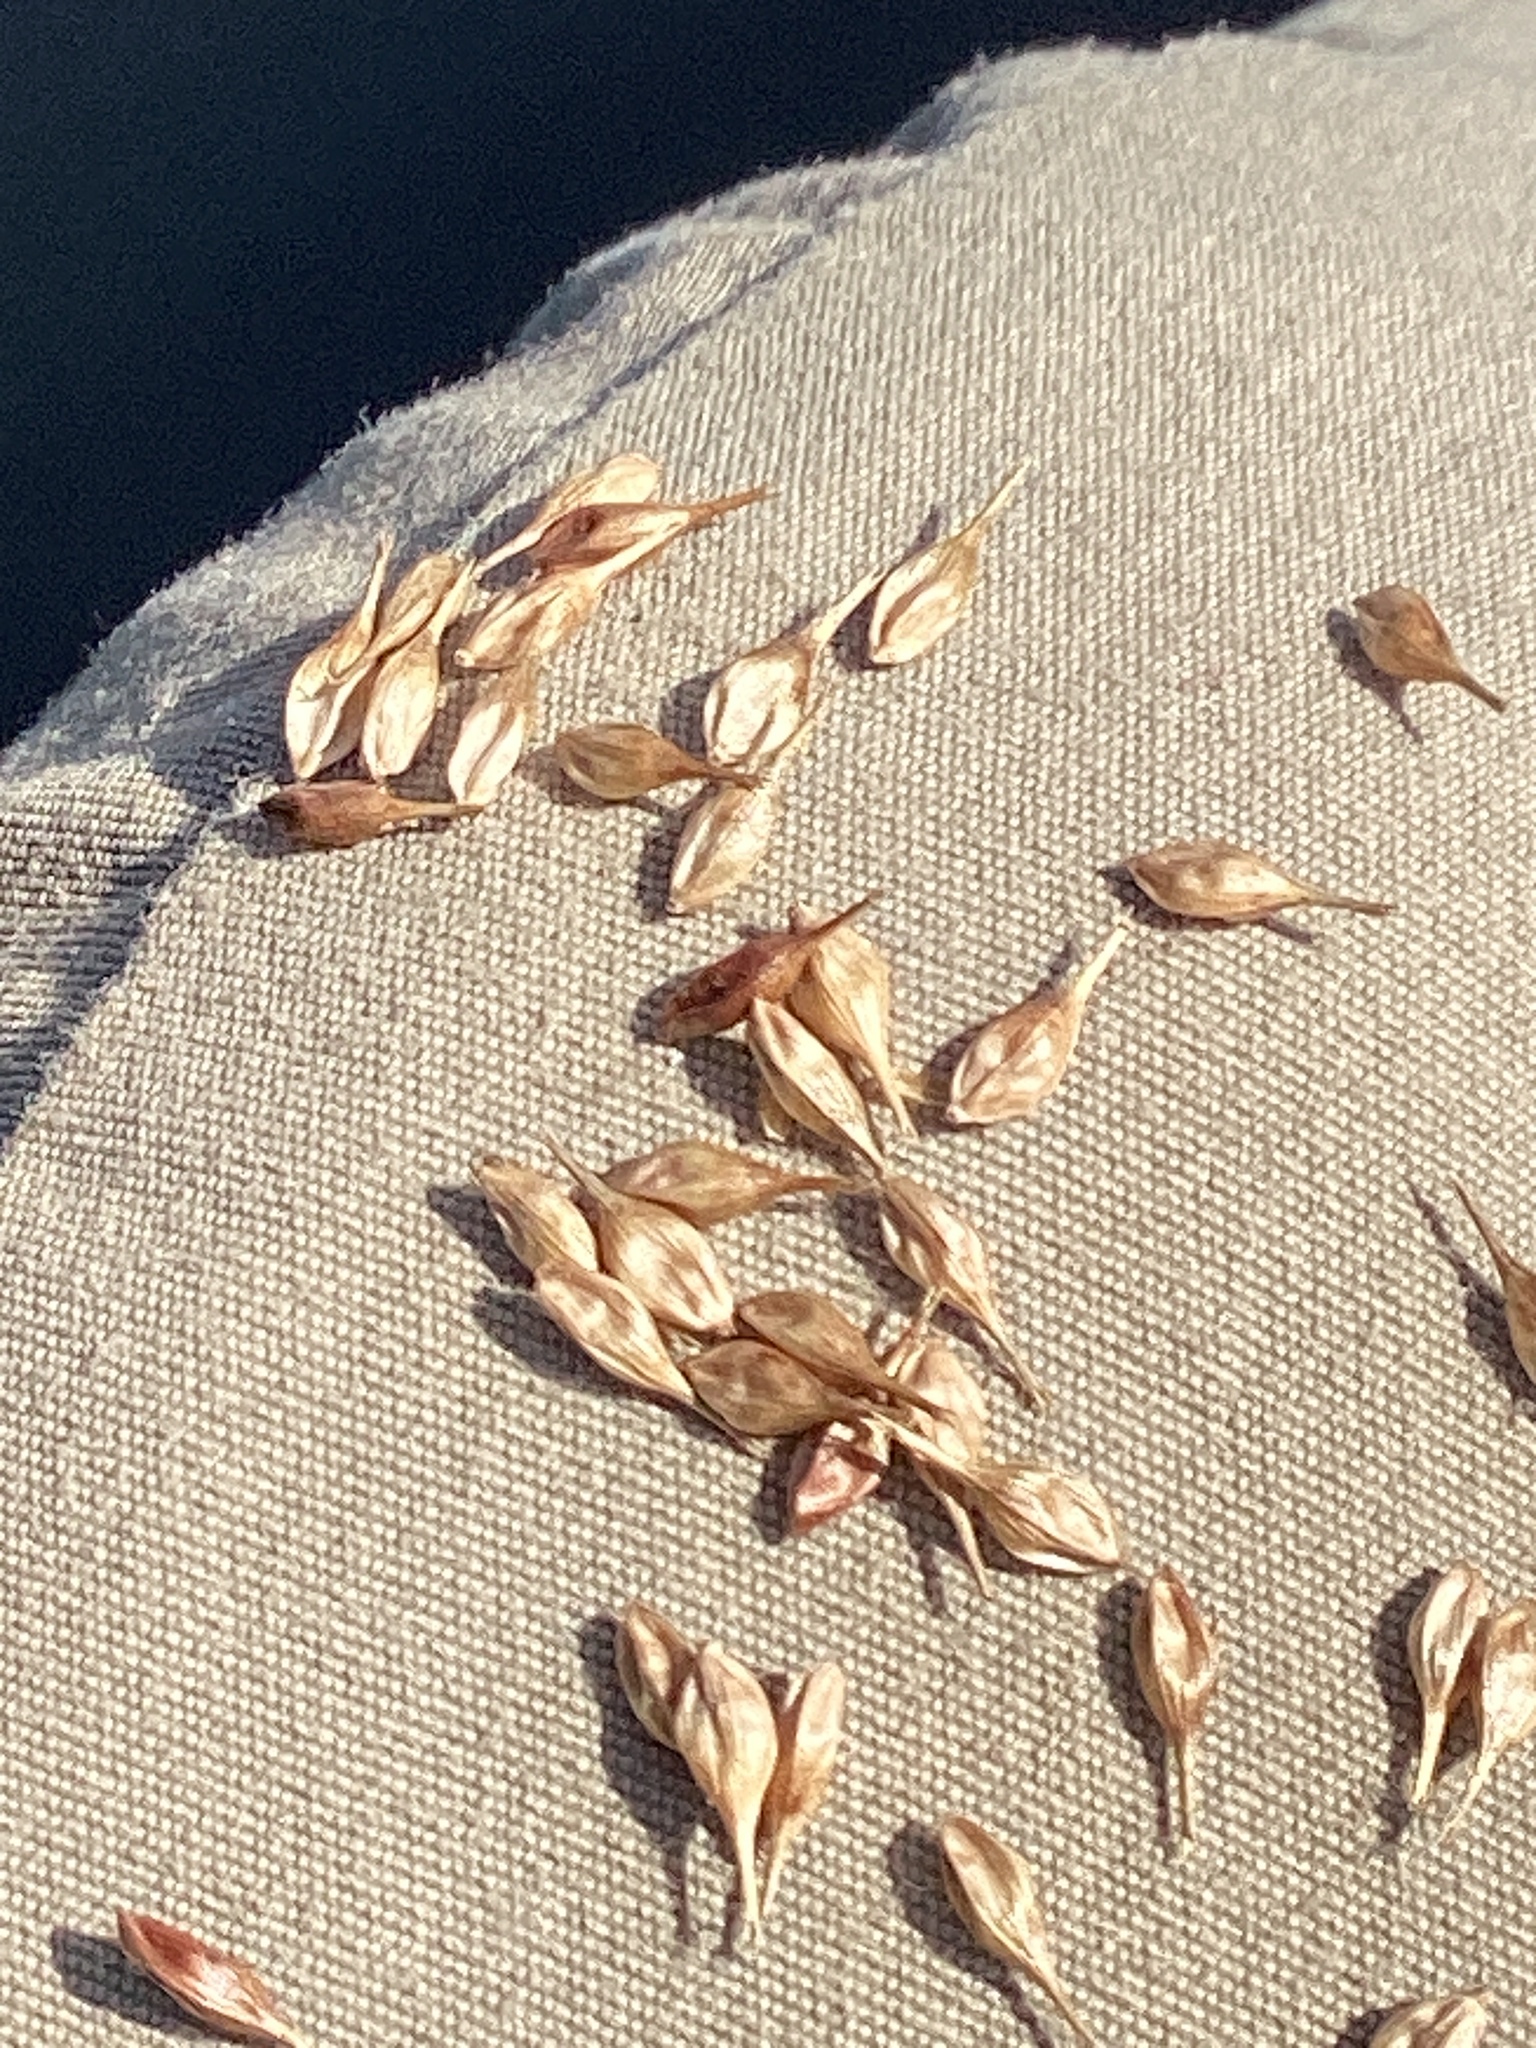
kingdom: Plantae
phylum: Tracheophyta
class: Liliopsida
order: Poales
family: Cyperaceae
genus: Carex
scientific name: Carex hystericina
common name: Bottlebrush sedge
